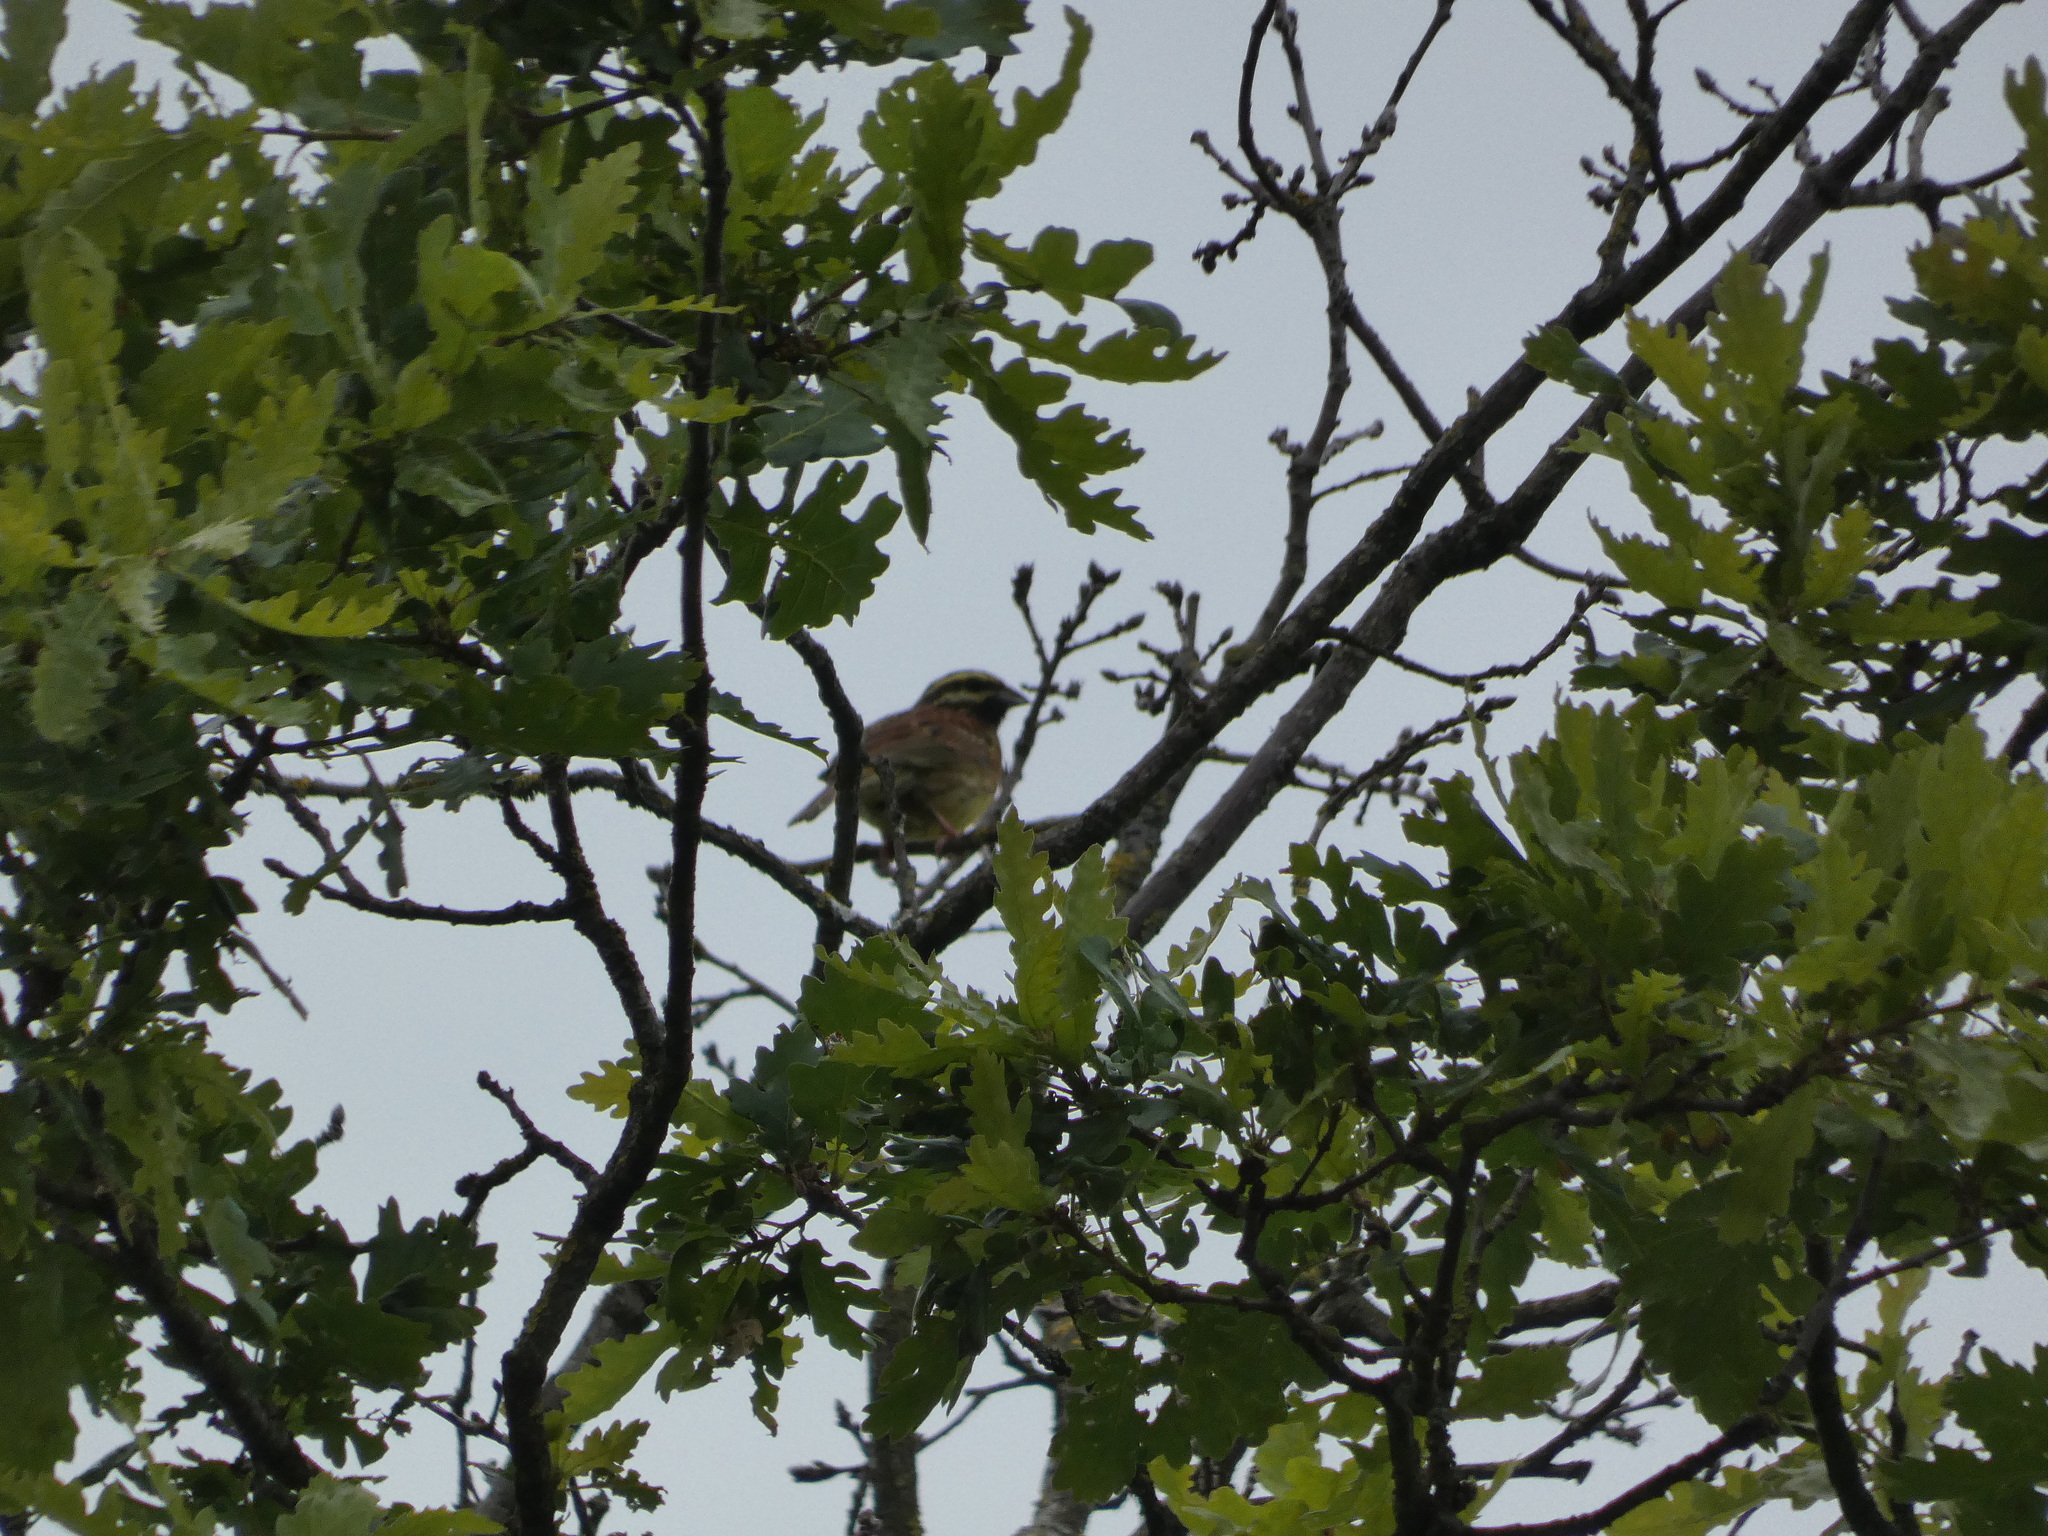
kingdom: Animalia
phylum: Chordata
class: Aves
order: Passeriformes
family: Emberizidae
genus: Emberiza
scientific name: Emberiza cirlus
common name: Cirl bunting
